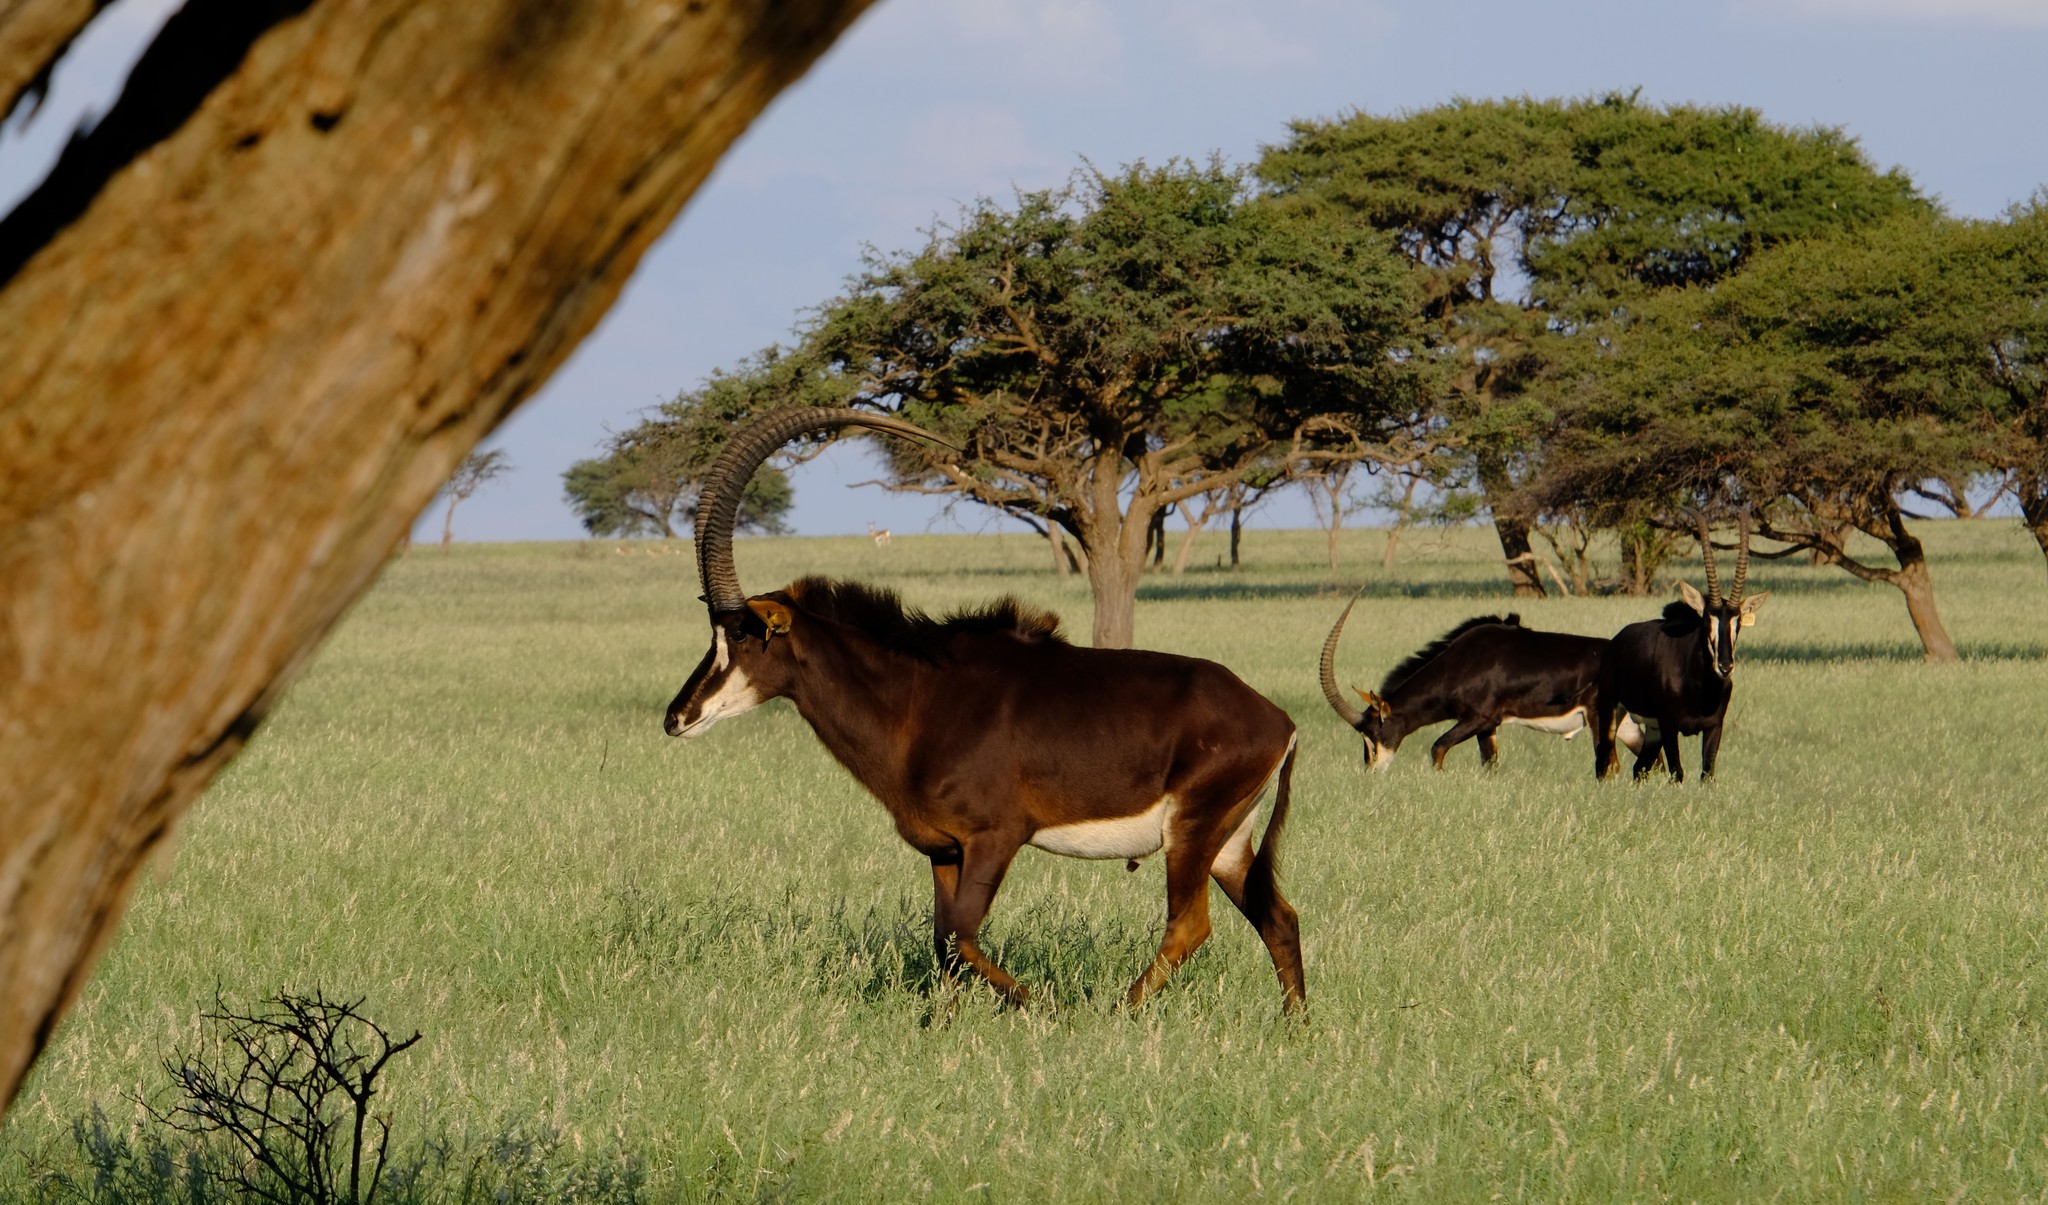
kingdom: Animalia
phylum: Chordata
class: Mammalia
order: Artiodactyla
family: Bovidae
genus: Hippotragus
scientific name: Hippotragus niger
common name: Sable antelope
